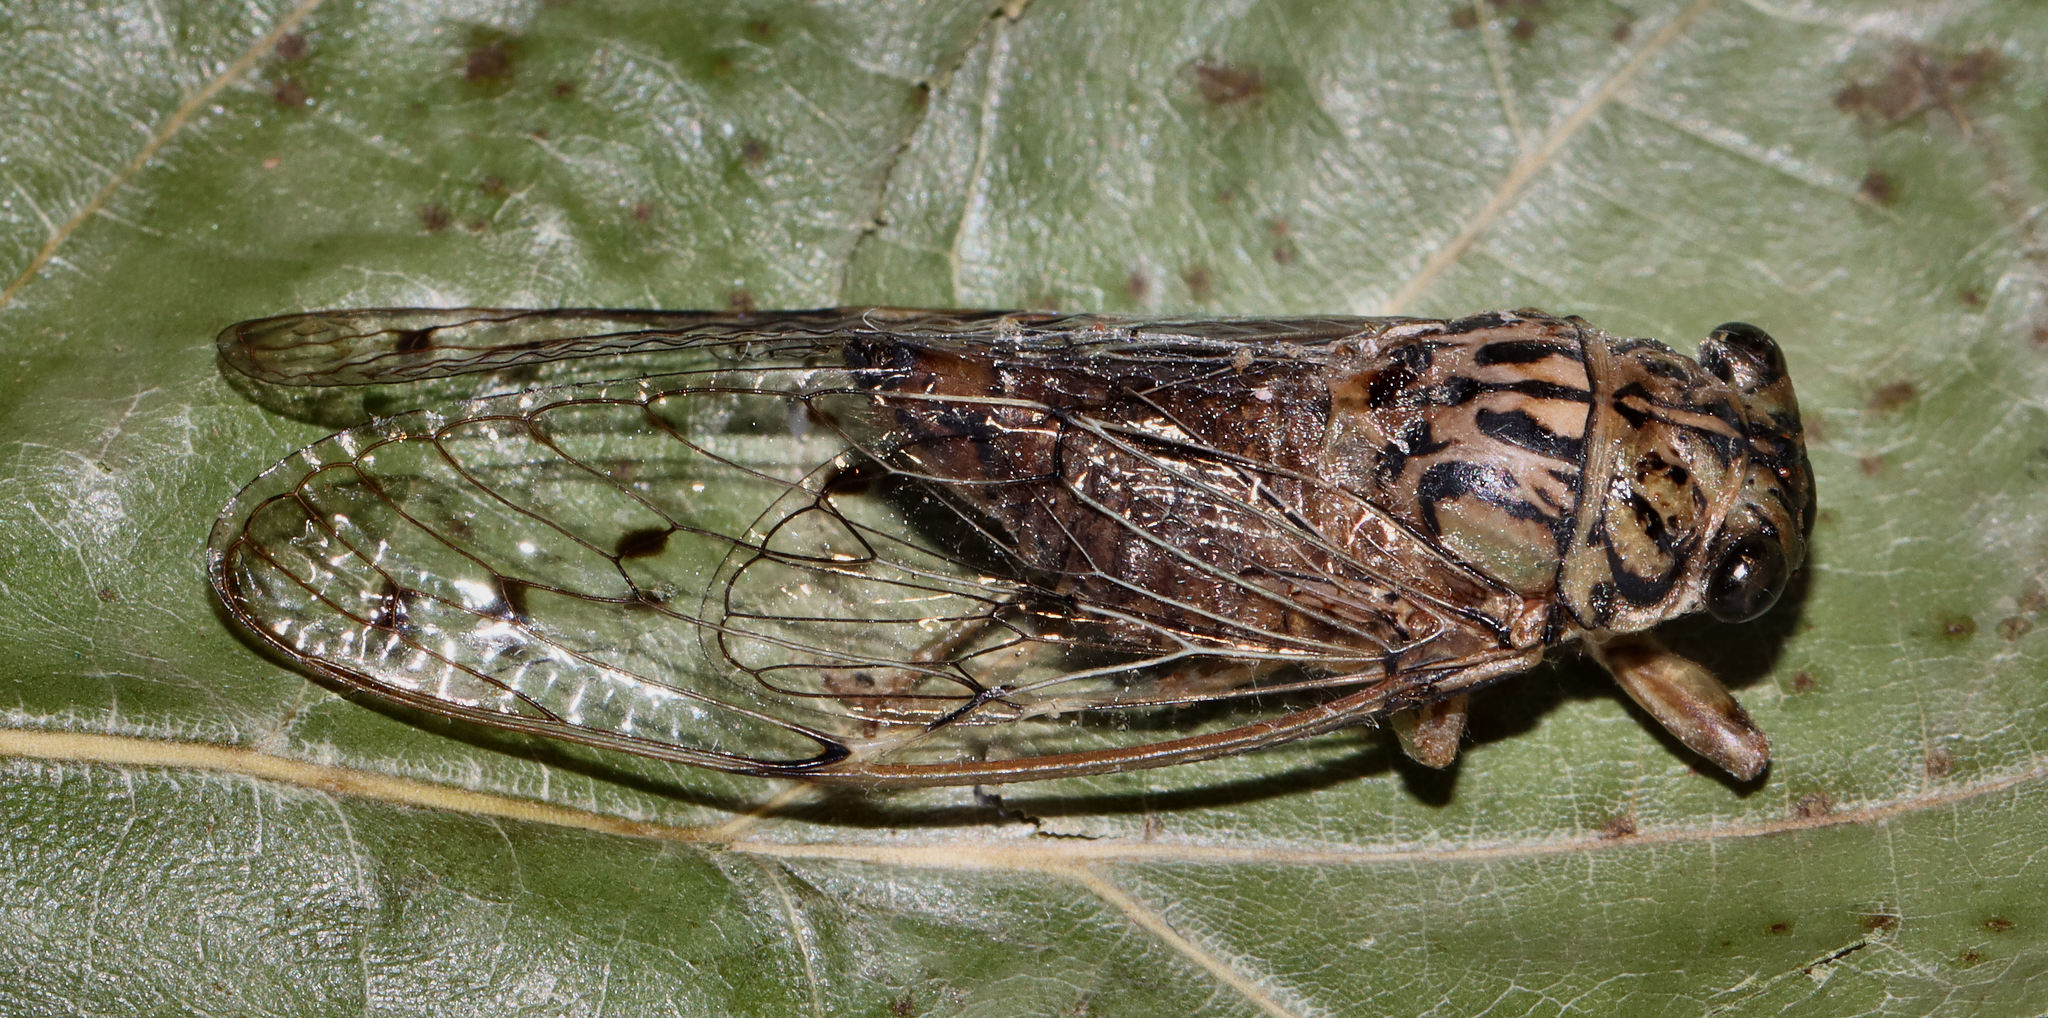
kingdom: Animalia
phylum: Arthropoda
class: Insecta
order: Hemiptera
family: Cicadidae
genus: Neocicada
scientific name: Neocicada hieroglyphica
